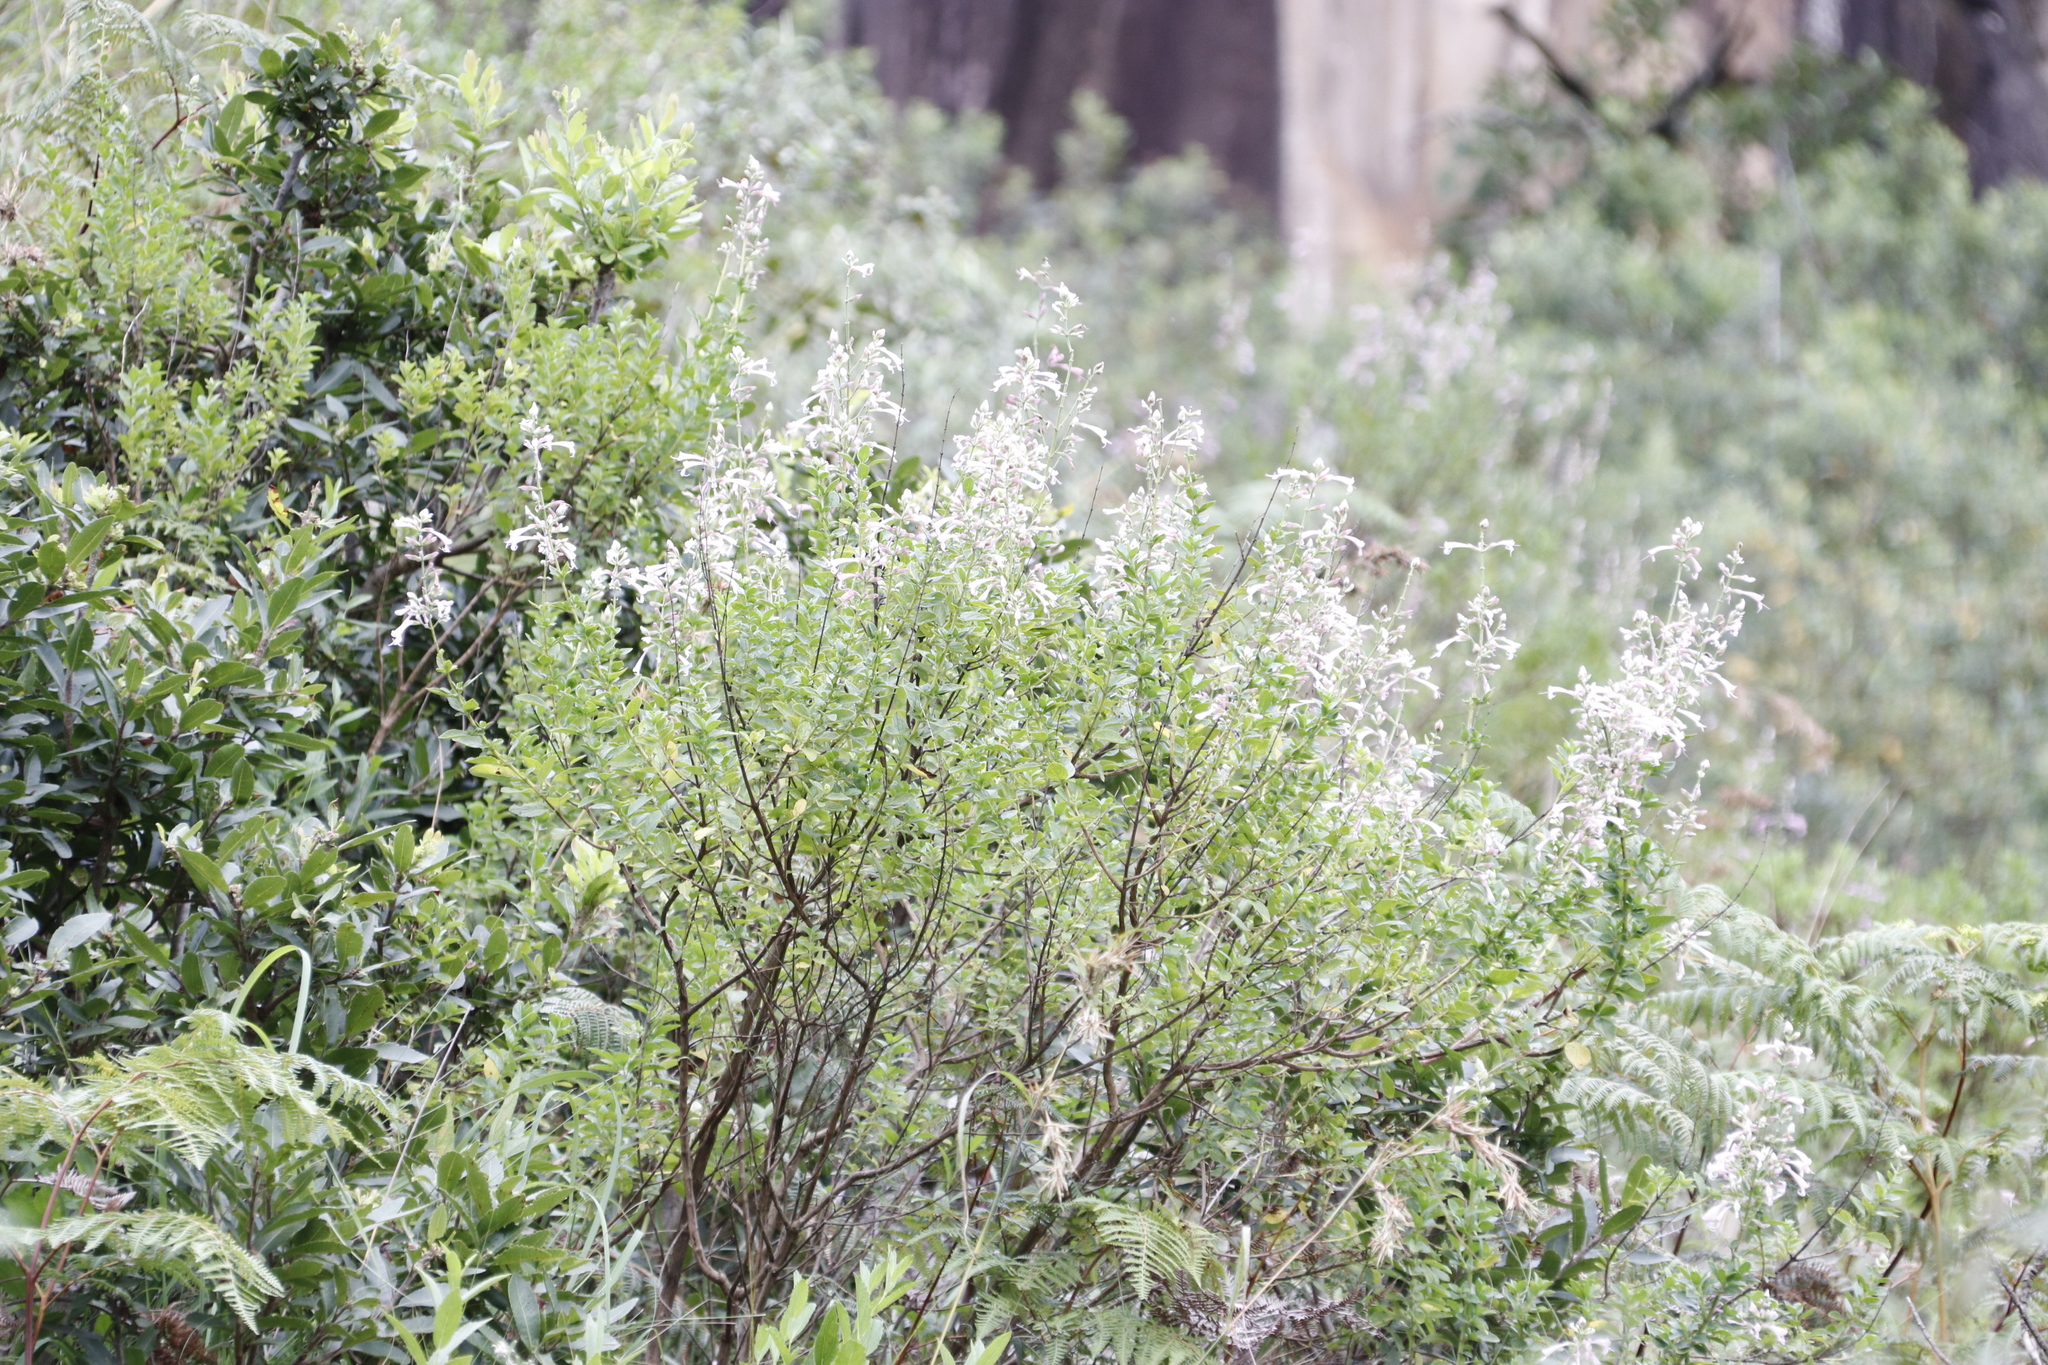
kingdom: Plantae
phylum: Tracheophyta
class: Magnoliopsida
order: Lamiales
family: Lamiaceae
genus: Syncolostemon
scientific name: Syncolostemon macranthus
